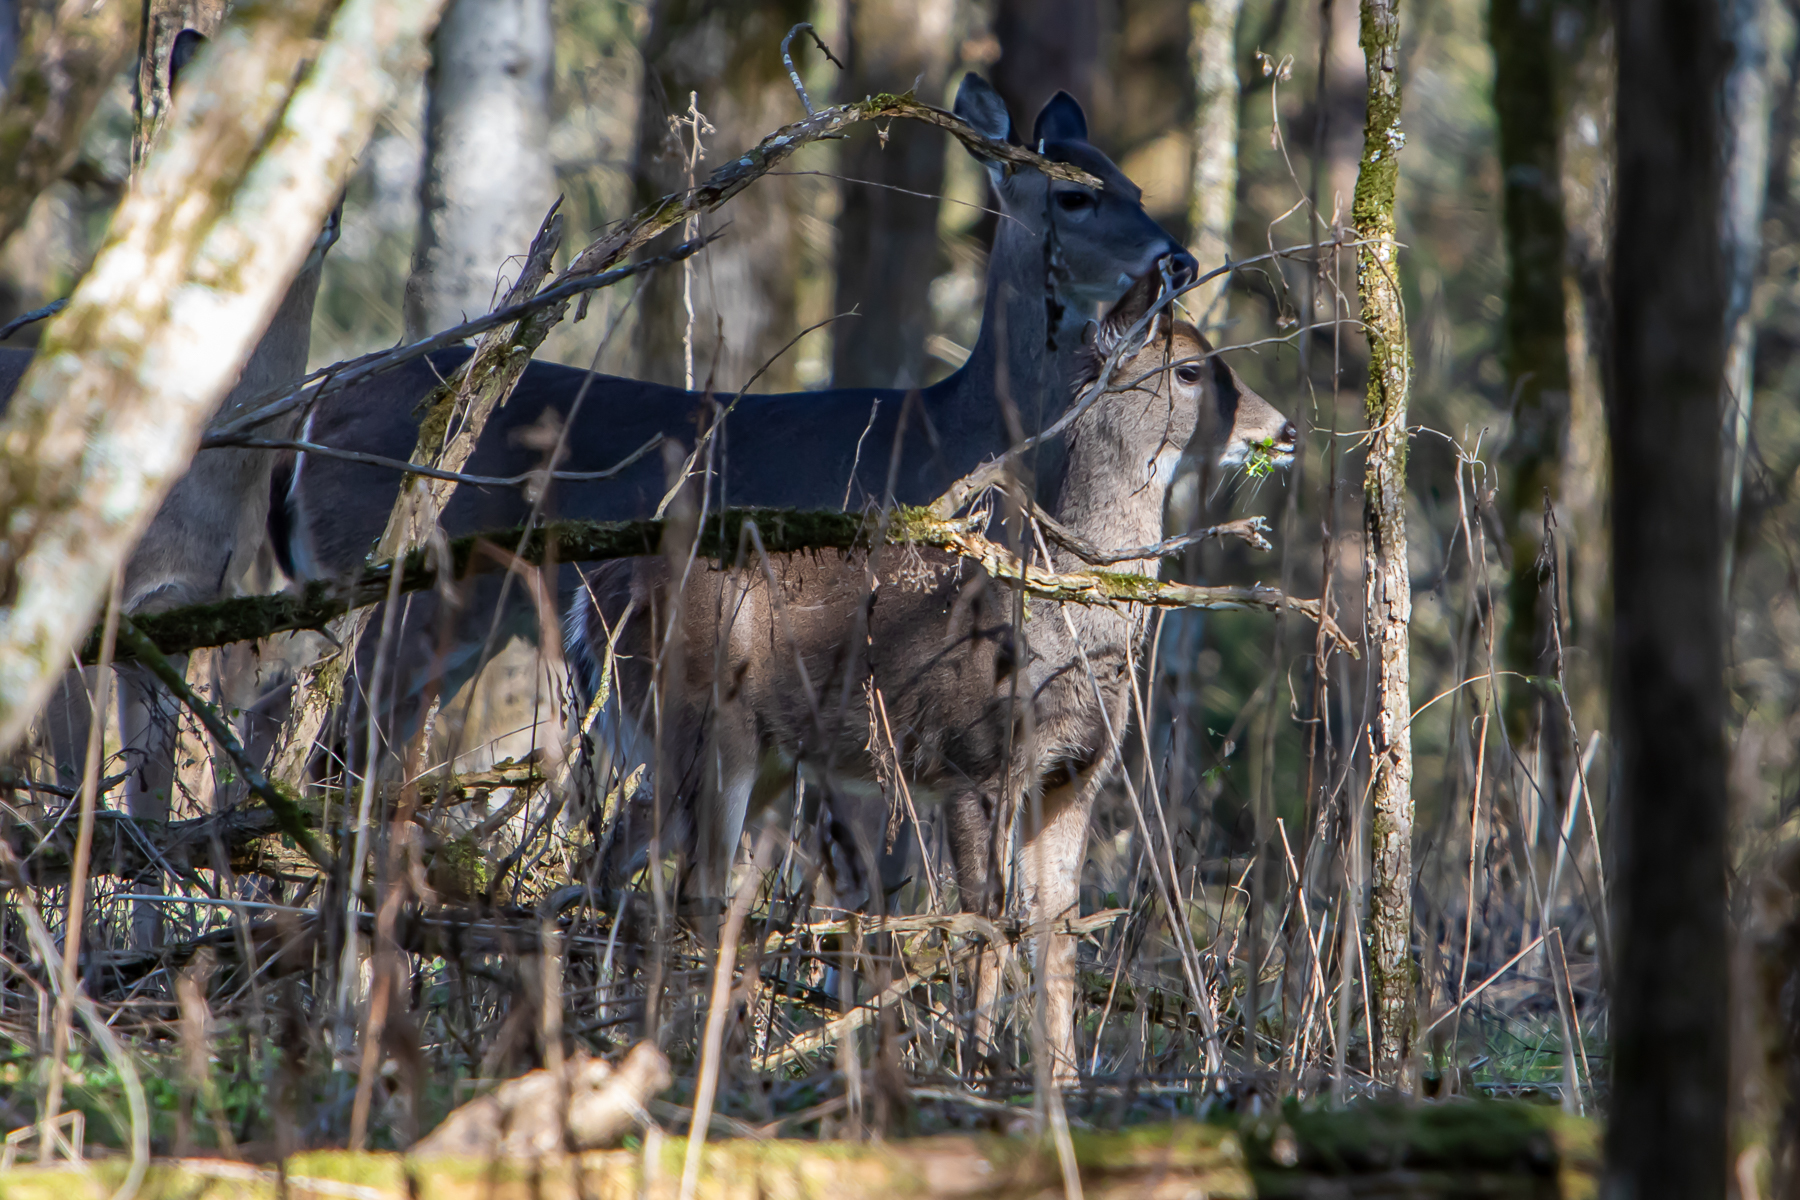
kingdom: Animalia
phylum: Chordata
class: Mammalia
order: Artiodactyla
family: Cervidae
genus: Odocoileus
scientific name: Odocoileus virginianus
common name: White-tailed deer
